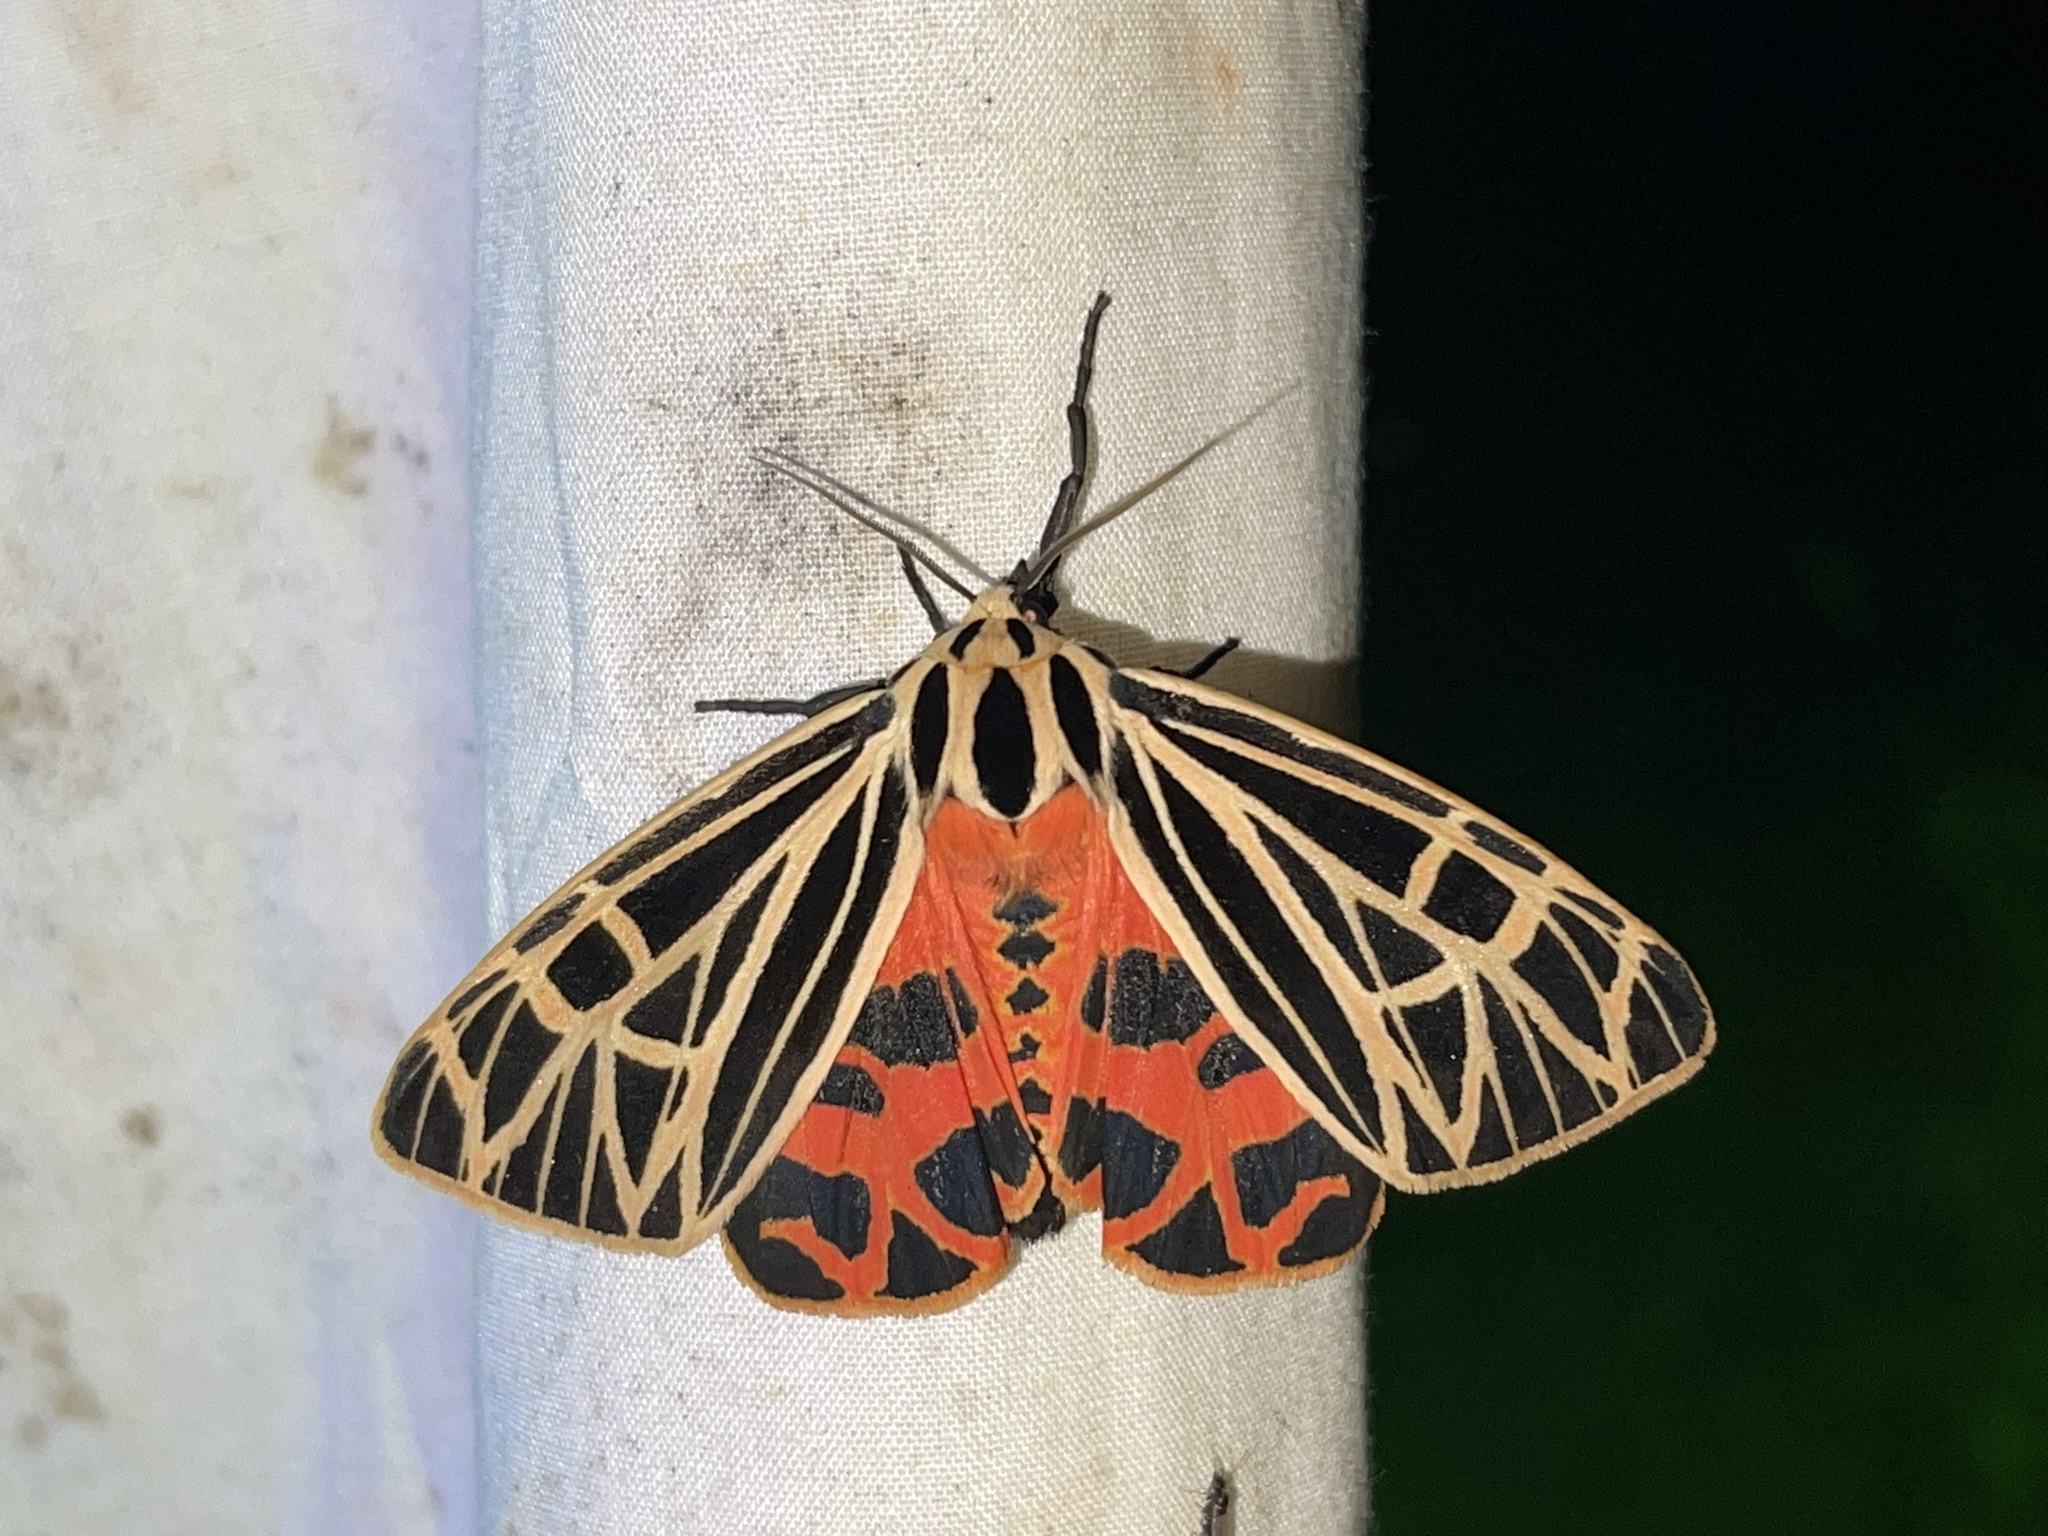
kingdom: Animalia
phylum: Arthropoda
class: Insecta
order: Lepidoptera
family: Erebidae
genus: Grammia
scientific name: Grammia virgo
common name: Virgin tiger moth
